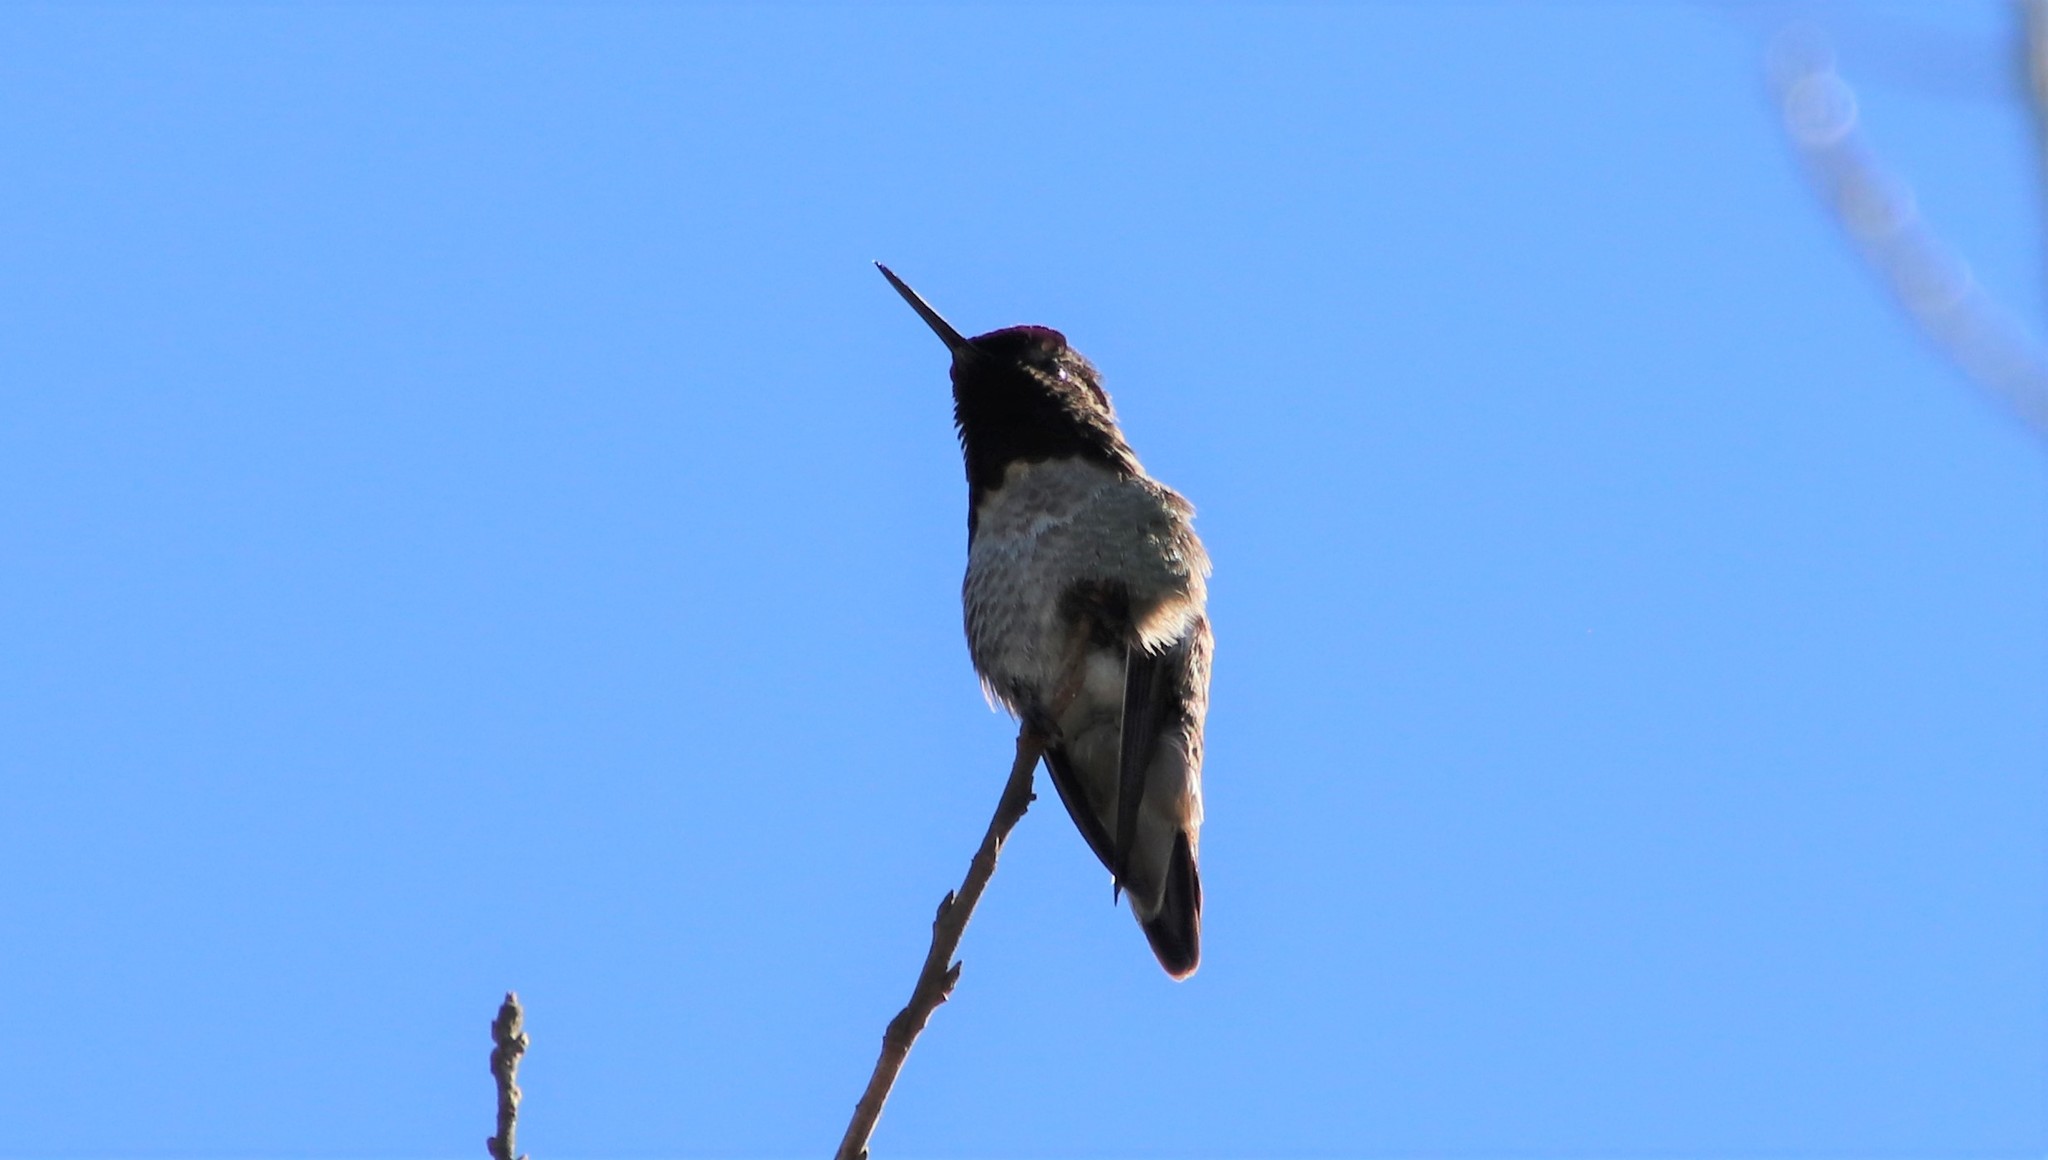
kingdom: Animalia
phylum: Chordata
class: Aves
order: Apodiformes
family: Trochilidae
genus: Calypte
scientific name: Calypte anna
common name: Anna's hummingbird
